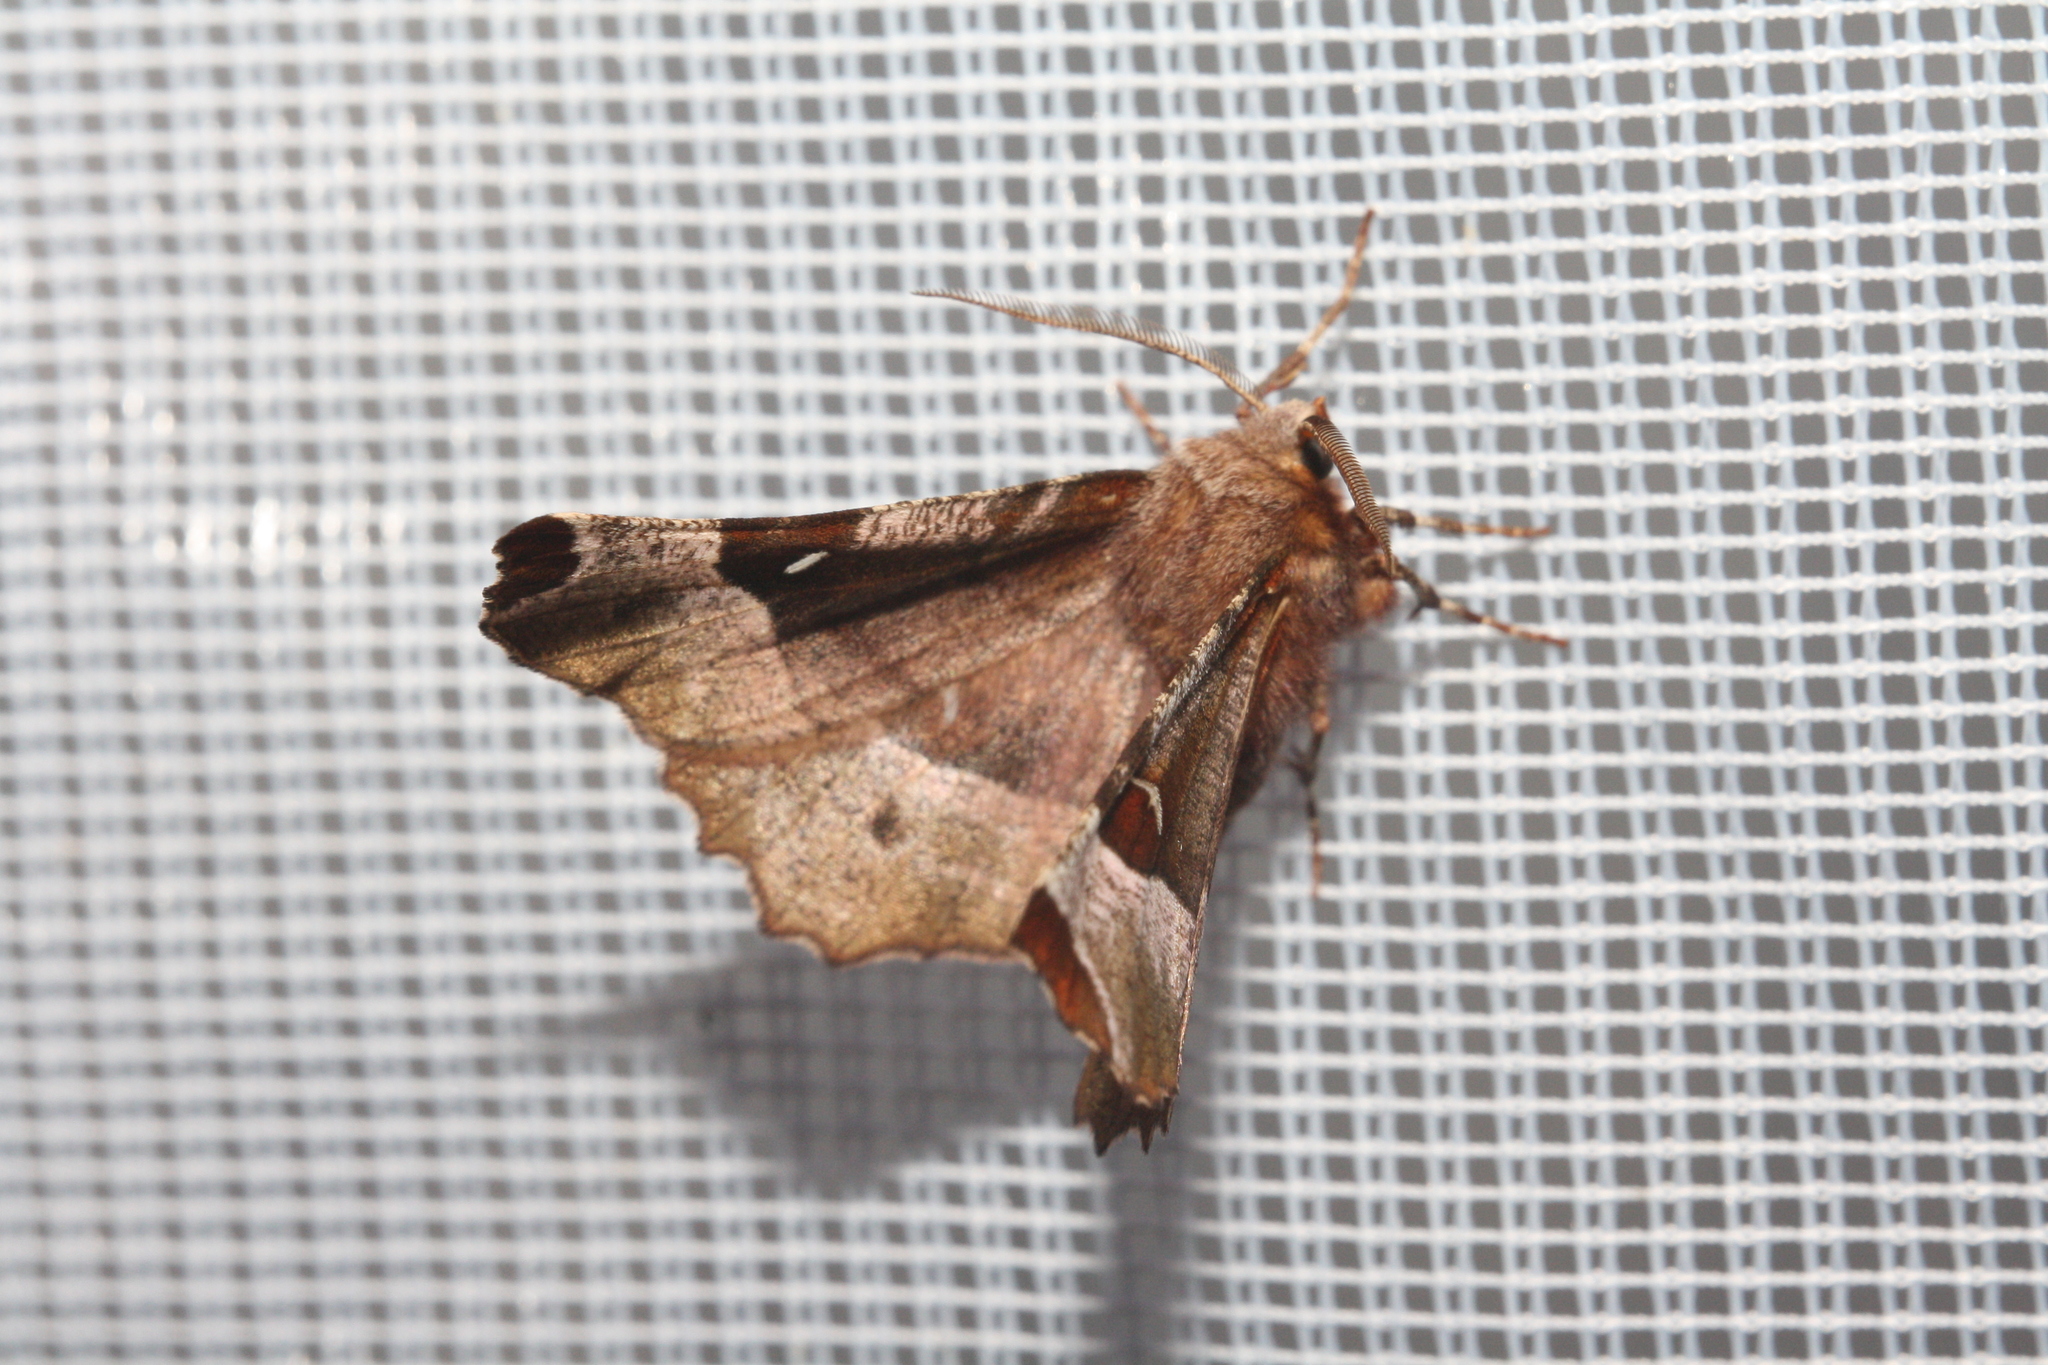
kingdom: Animalia
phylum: Arthropoda
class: Insecta
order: Lepidoptera
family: Geometridae
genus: Selenia
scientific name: Selenia tetralunaria
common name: Purple thorn
